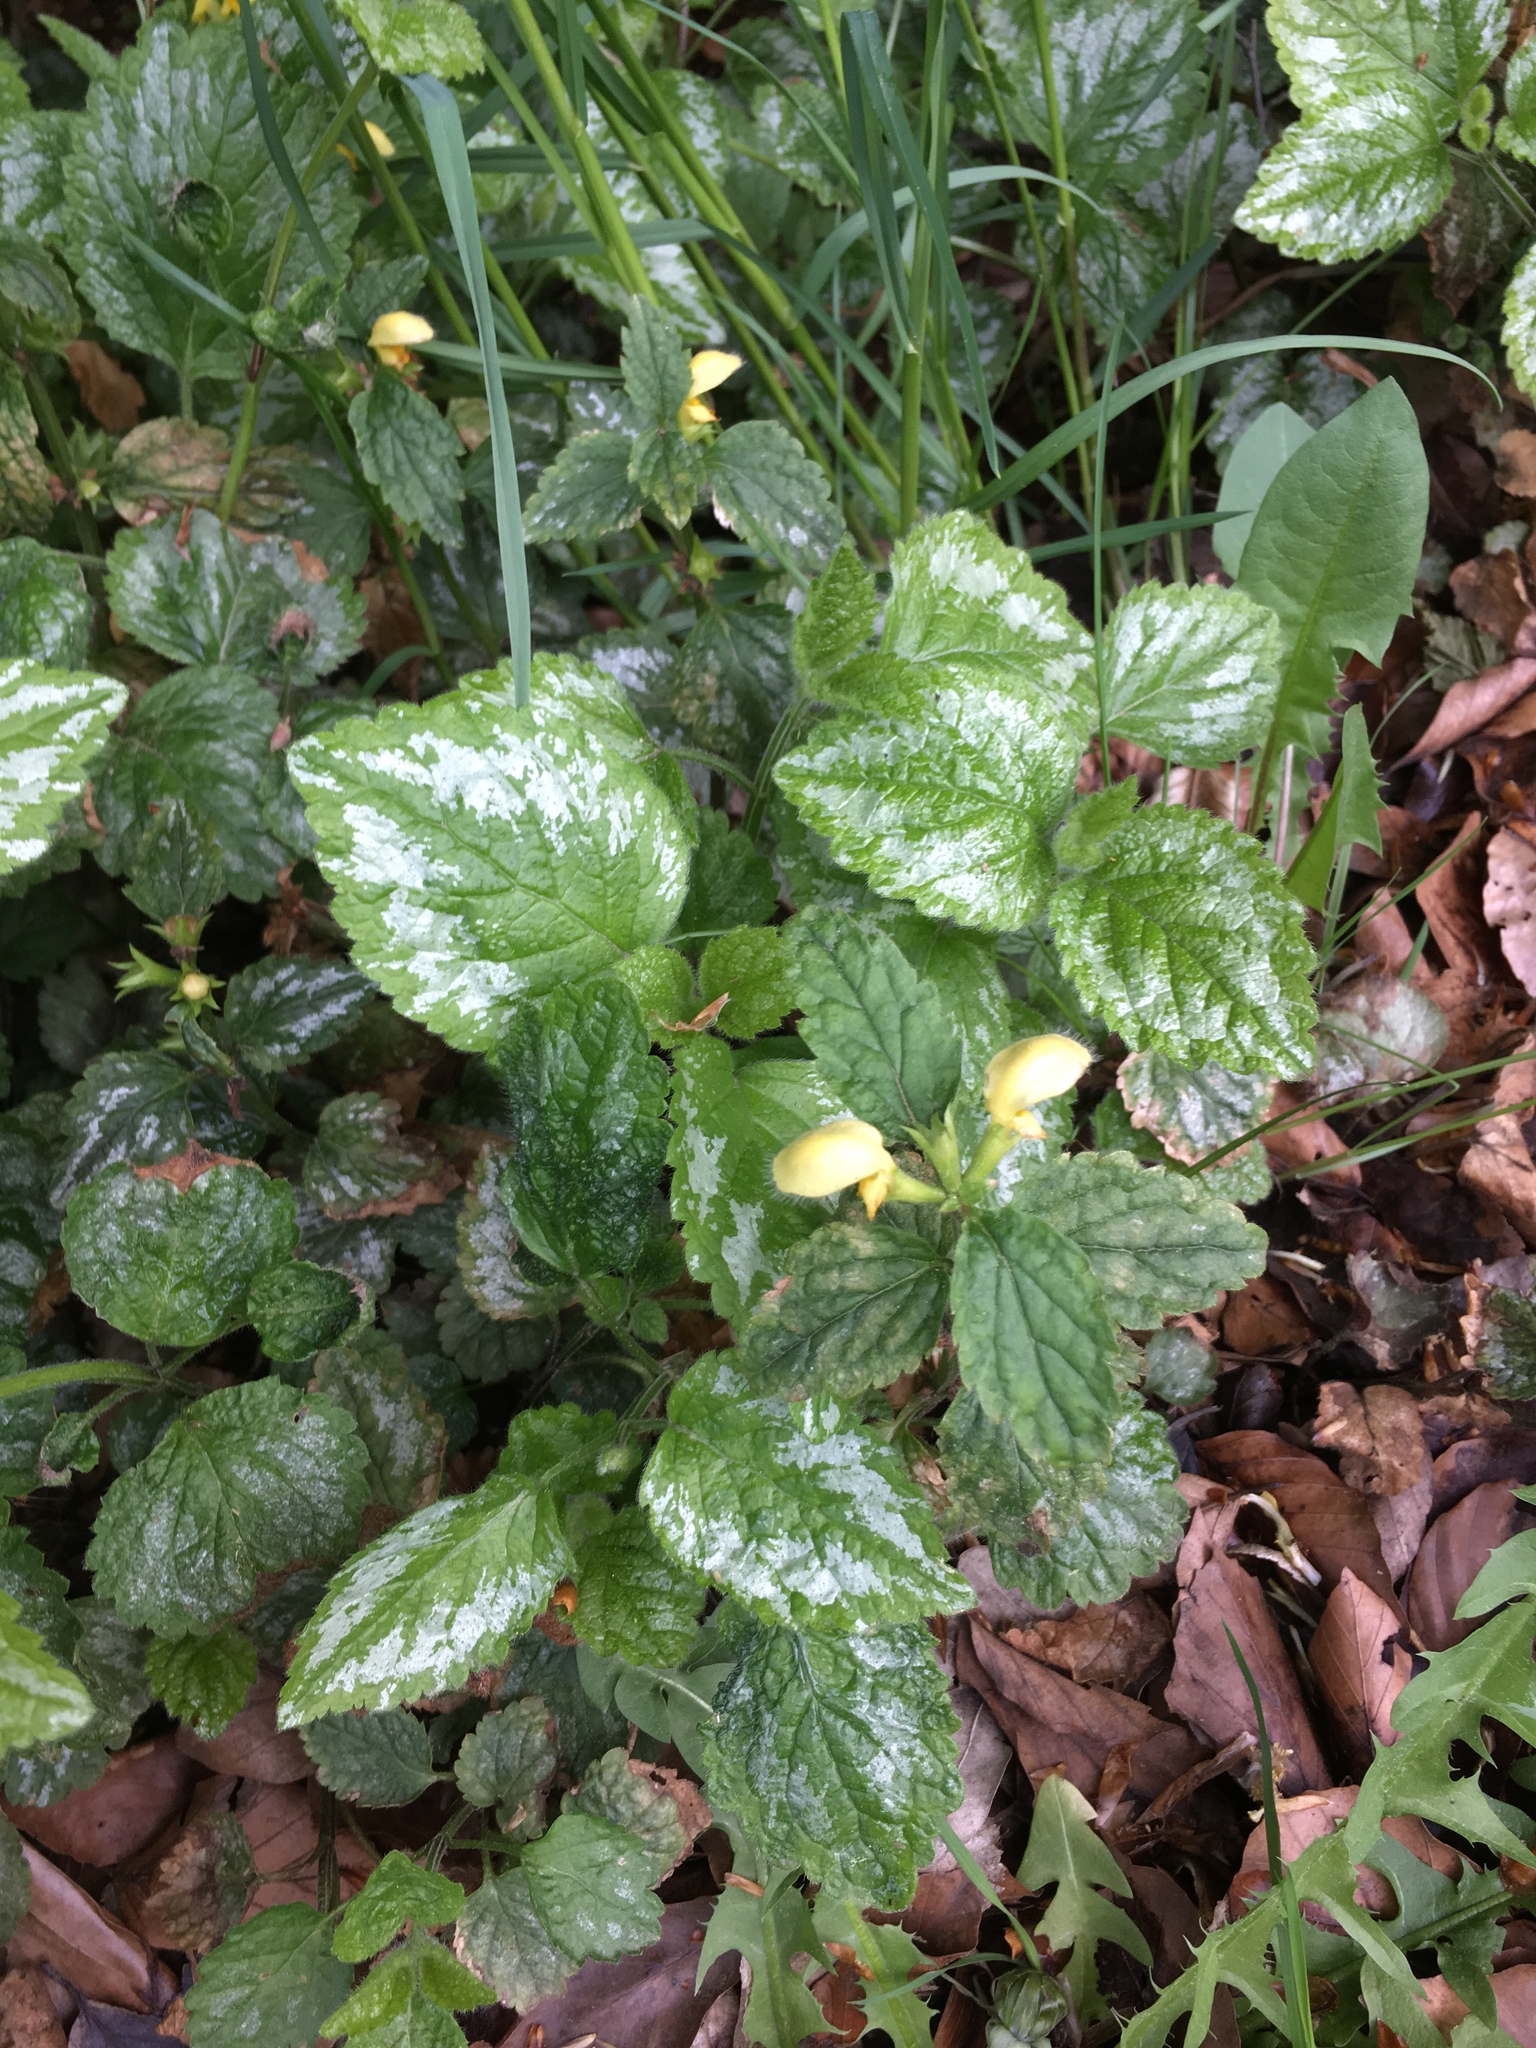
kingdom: Plantae
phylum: Tracheophyta
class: Magnoliopsida
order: Lamiales
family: Lamiaceae
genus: Lamium
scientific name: Lamium galeobdolon
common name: Yellow archangel
